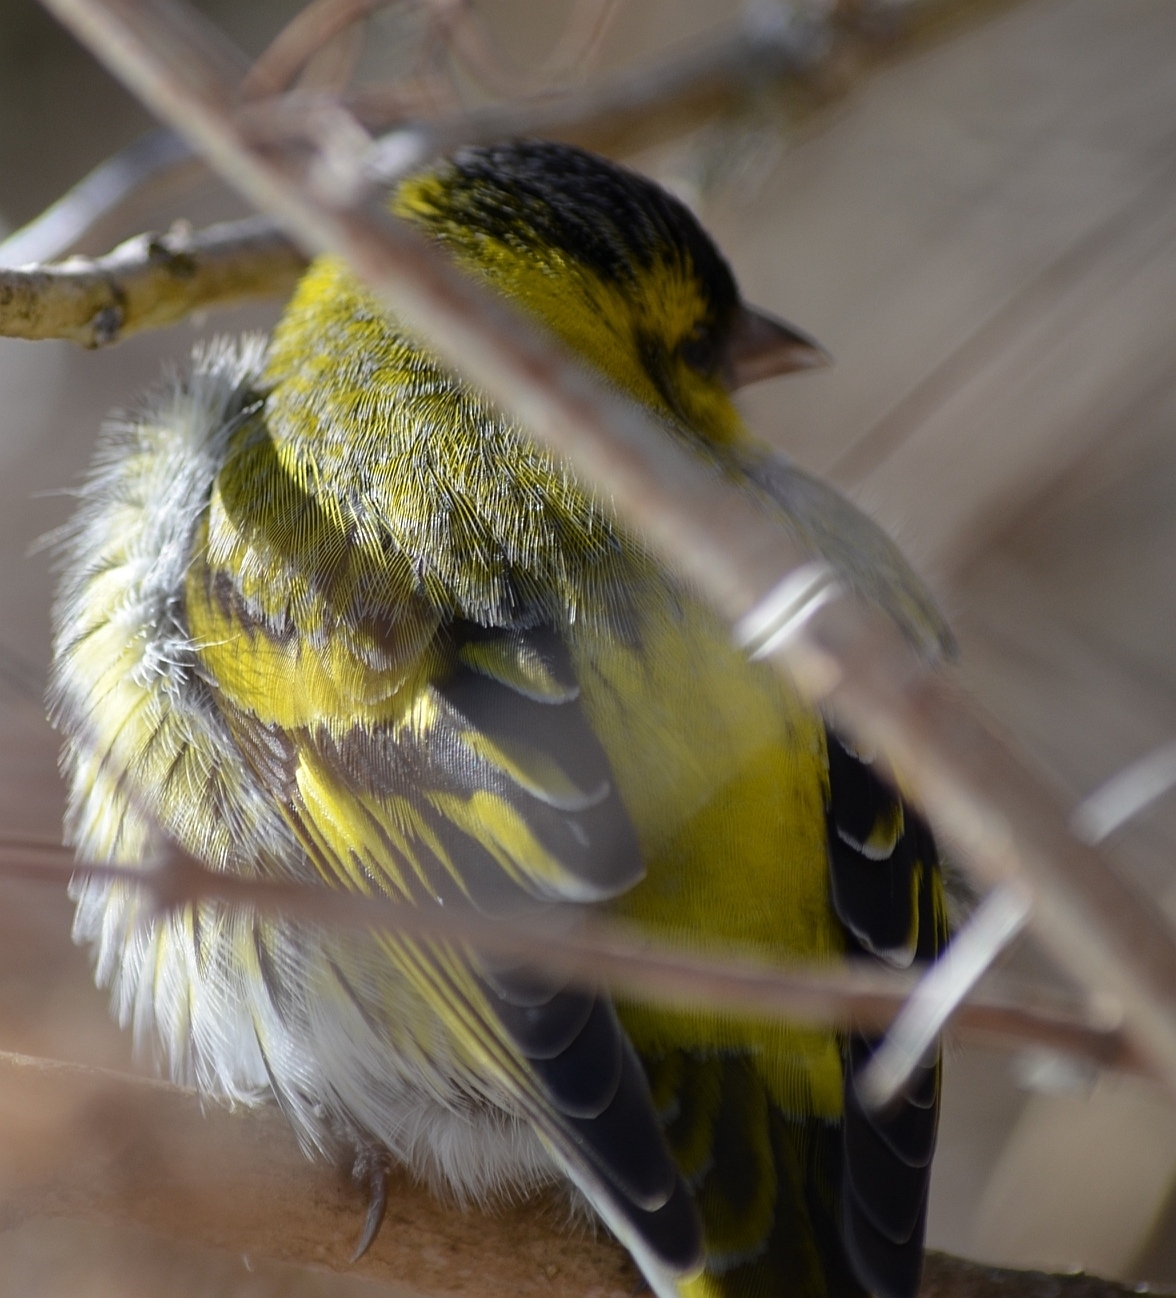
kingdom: Animalia
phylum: Chordata
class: Aves
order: Passeriformes
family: Fringillidae
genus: Spinus
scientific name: Spinus spinus
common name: Eurasian siskin
